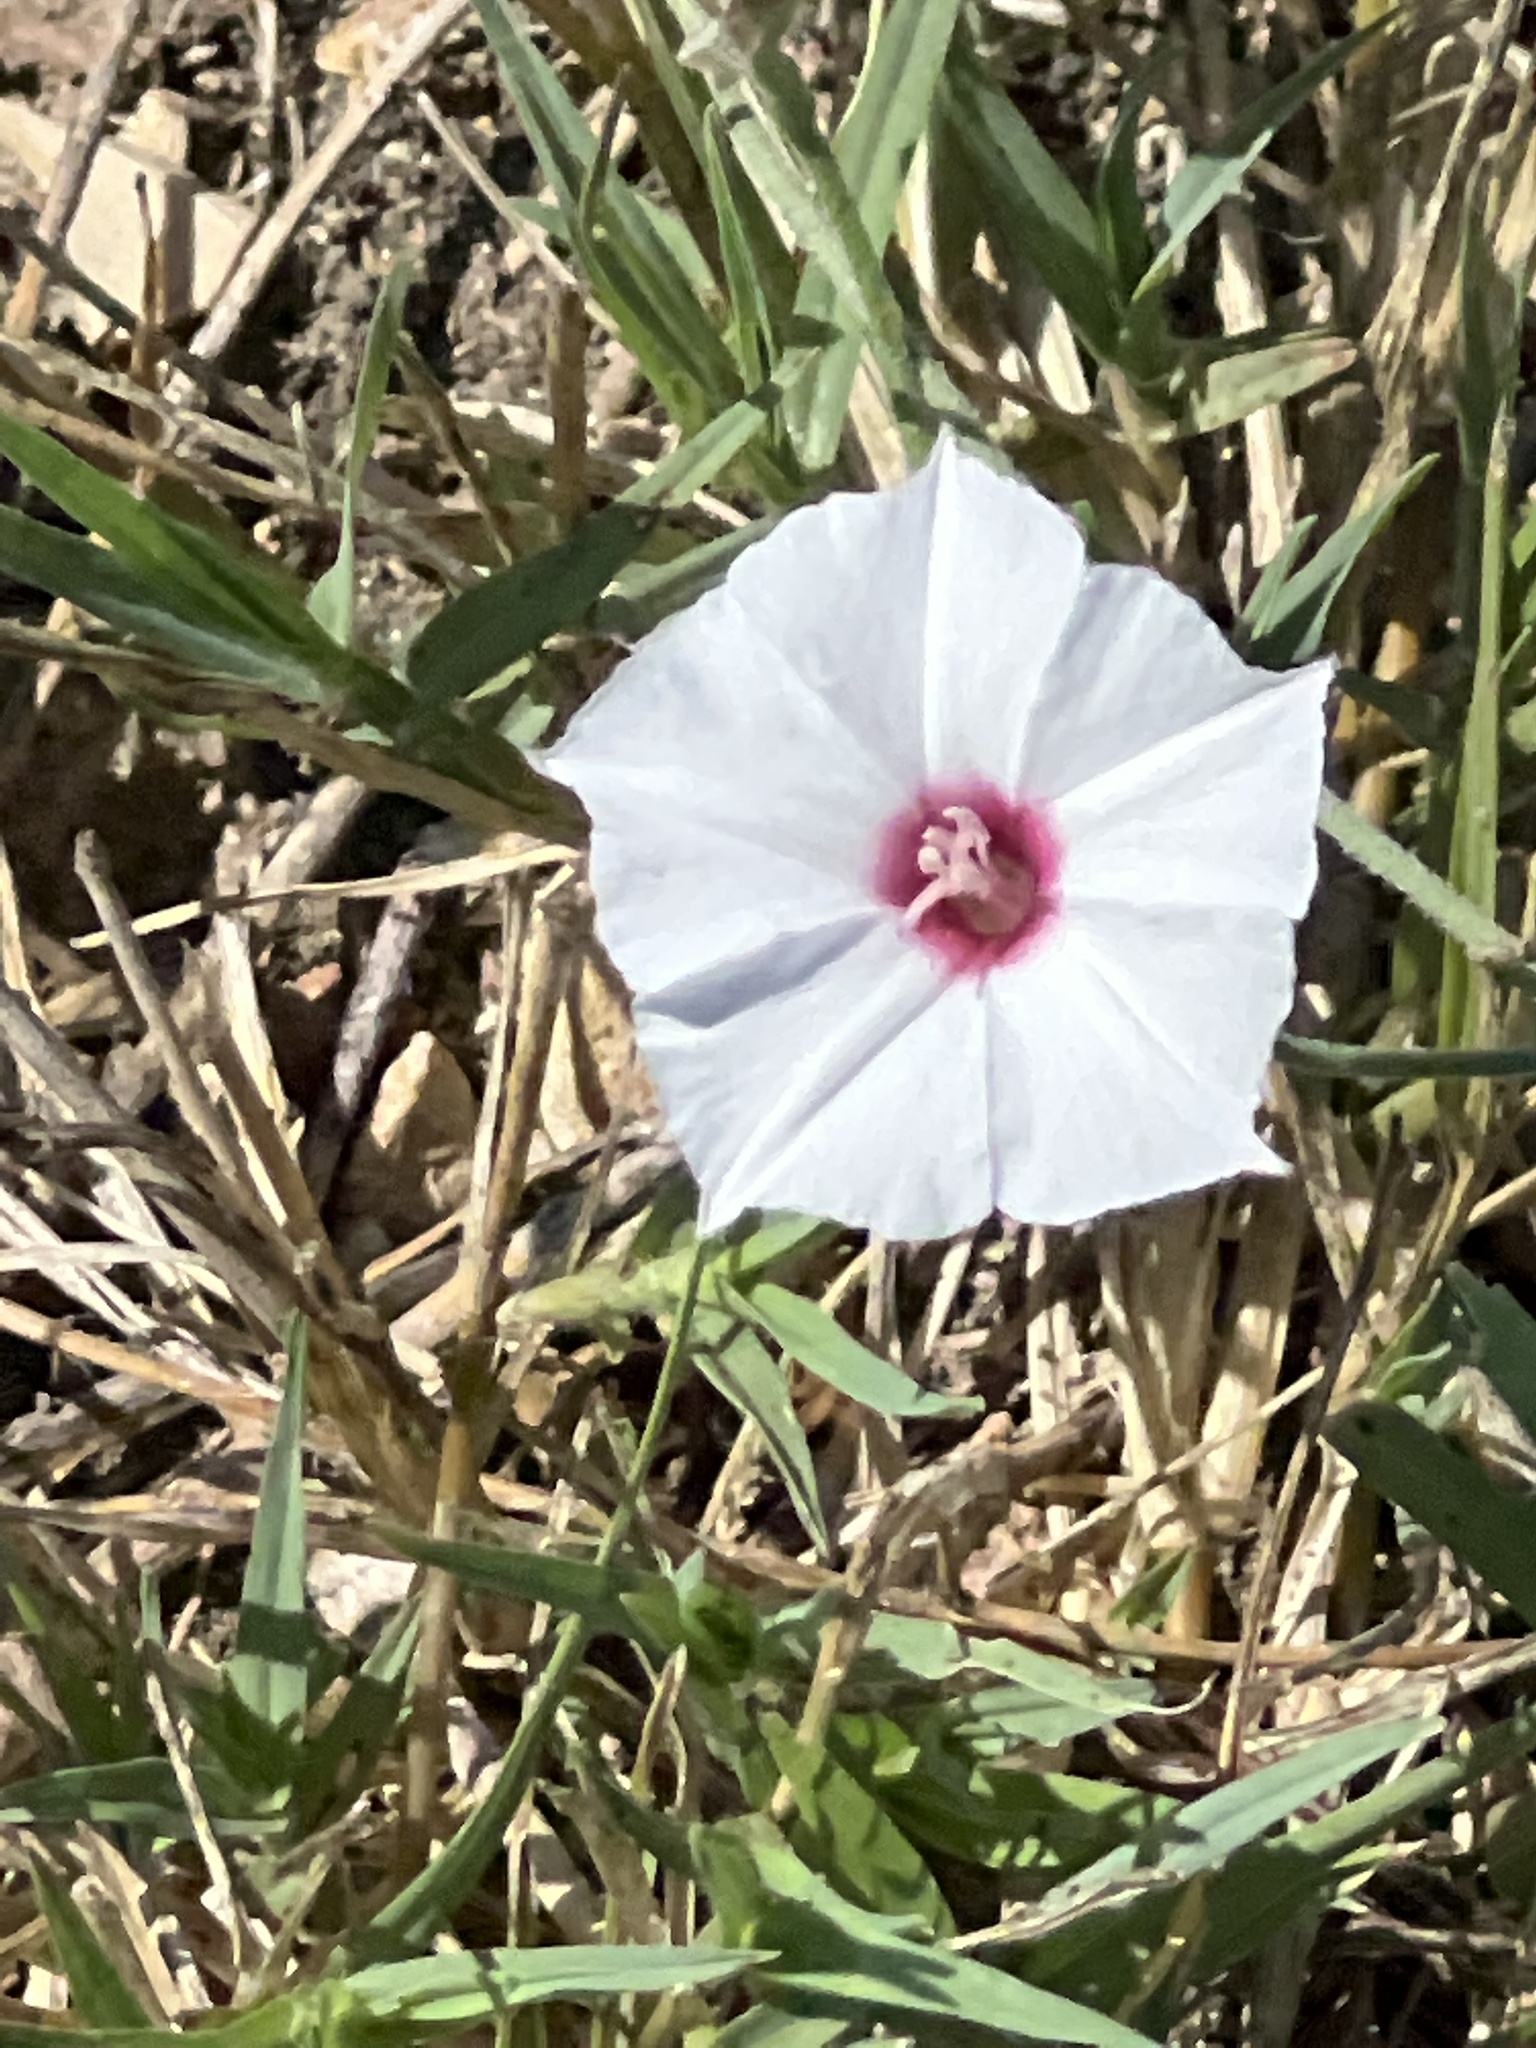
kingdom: Plantae
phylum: Tracheophyta
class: Magnoliopsida
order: Solanales
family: Convolvulaceae
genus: Convolvulus
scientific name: Convolvulus equitans
